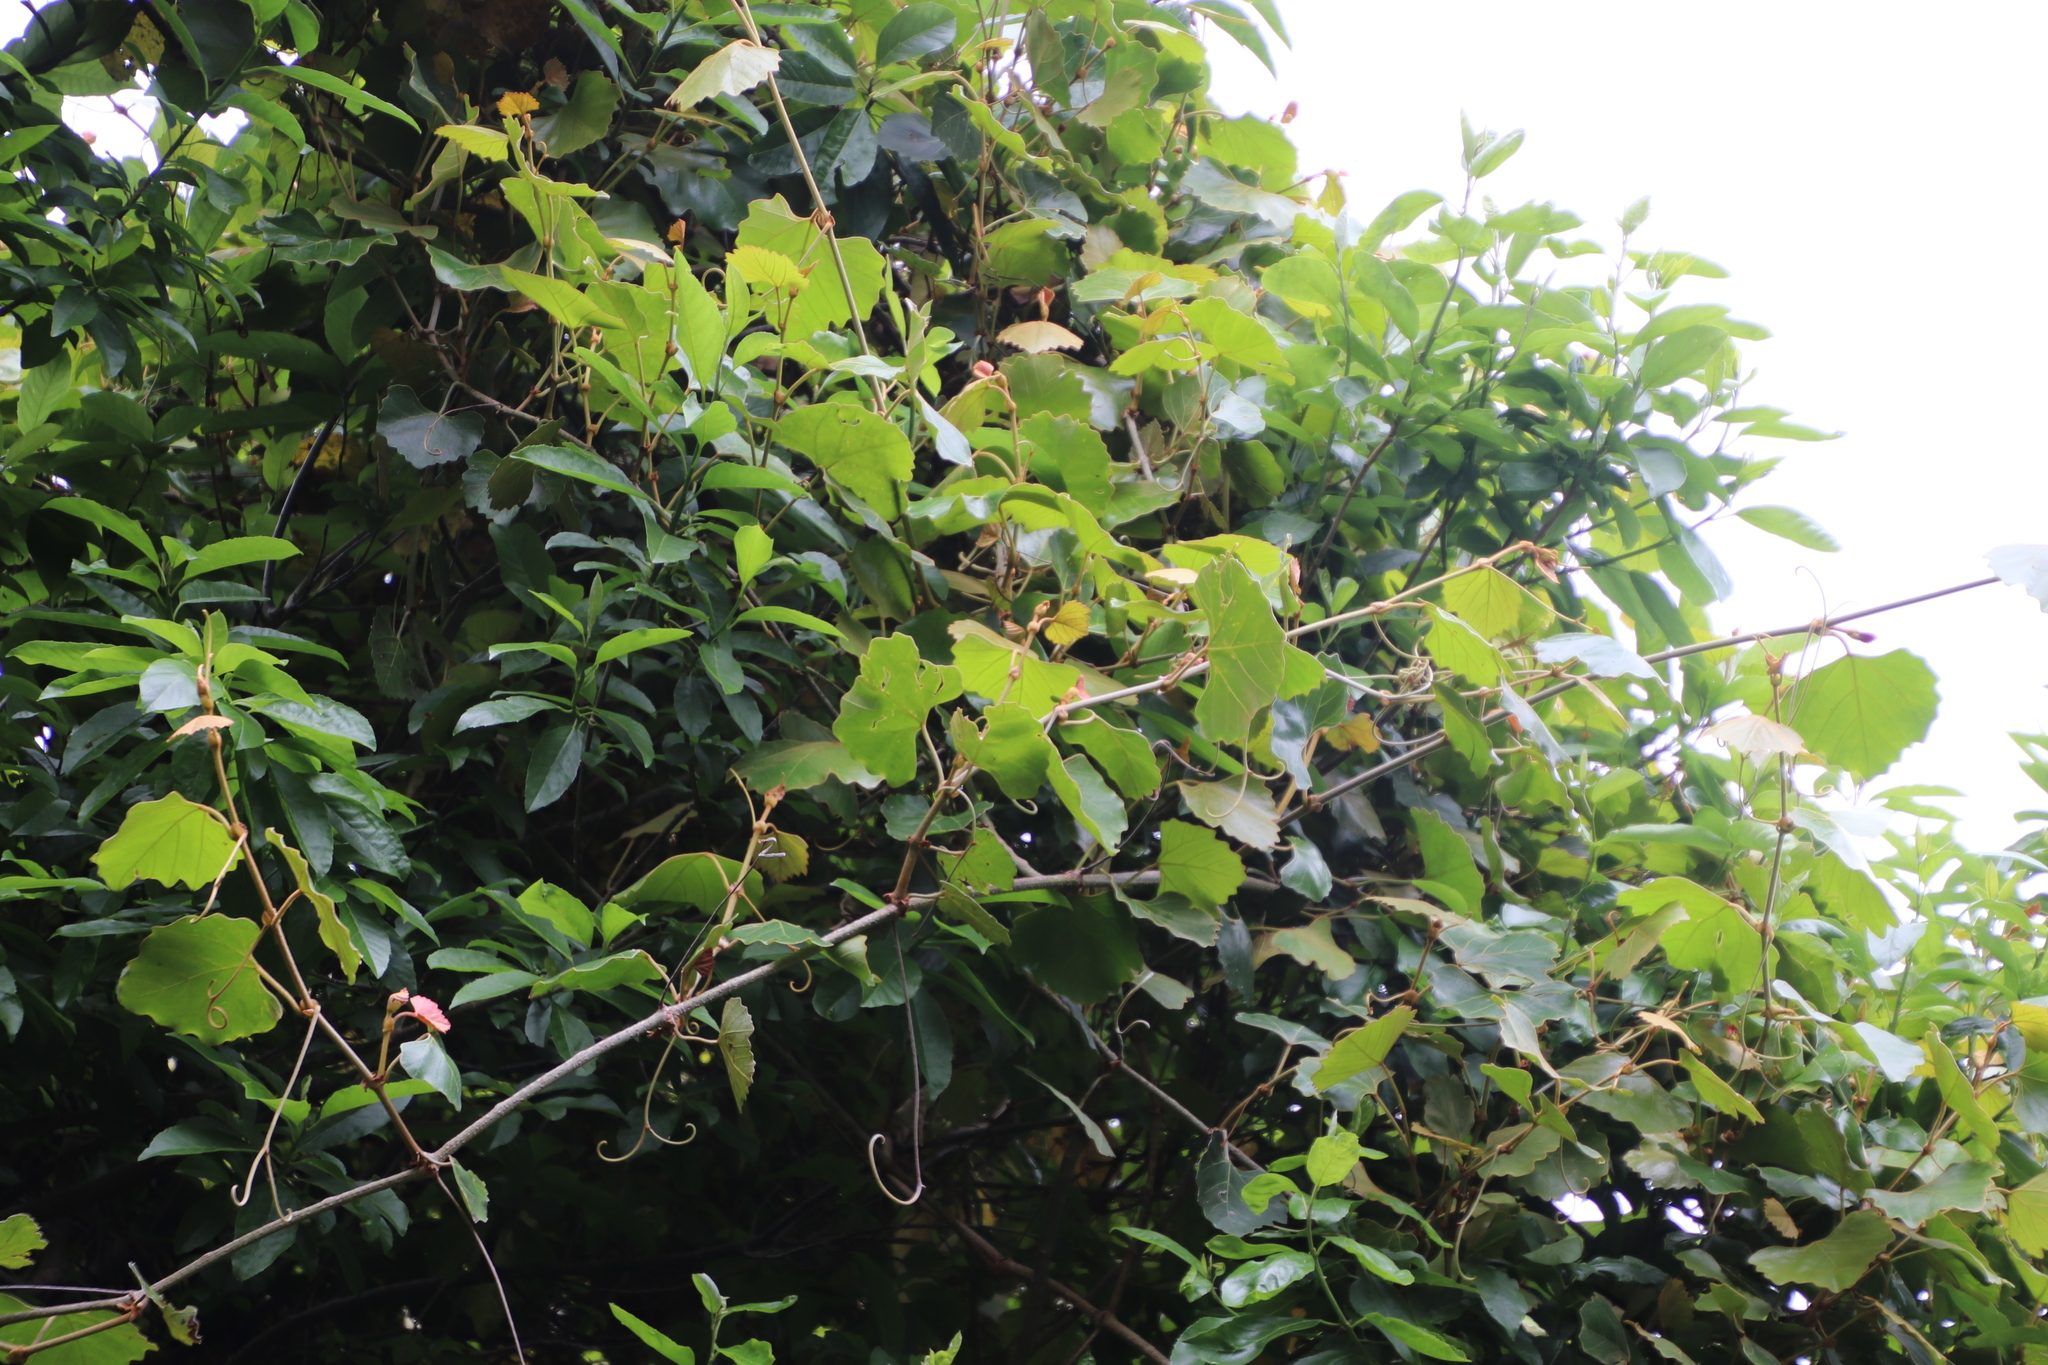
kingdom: Plantae
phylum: Tracheophyta
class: Magnoliopsida
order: Vitales
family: Vitaceae
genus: Rhoicissus
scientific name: Rhoicissus tomentosa
